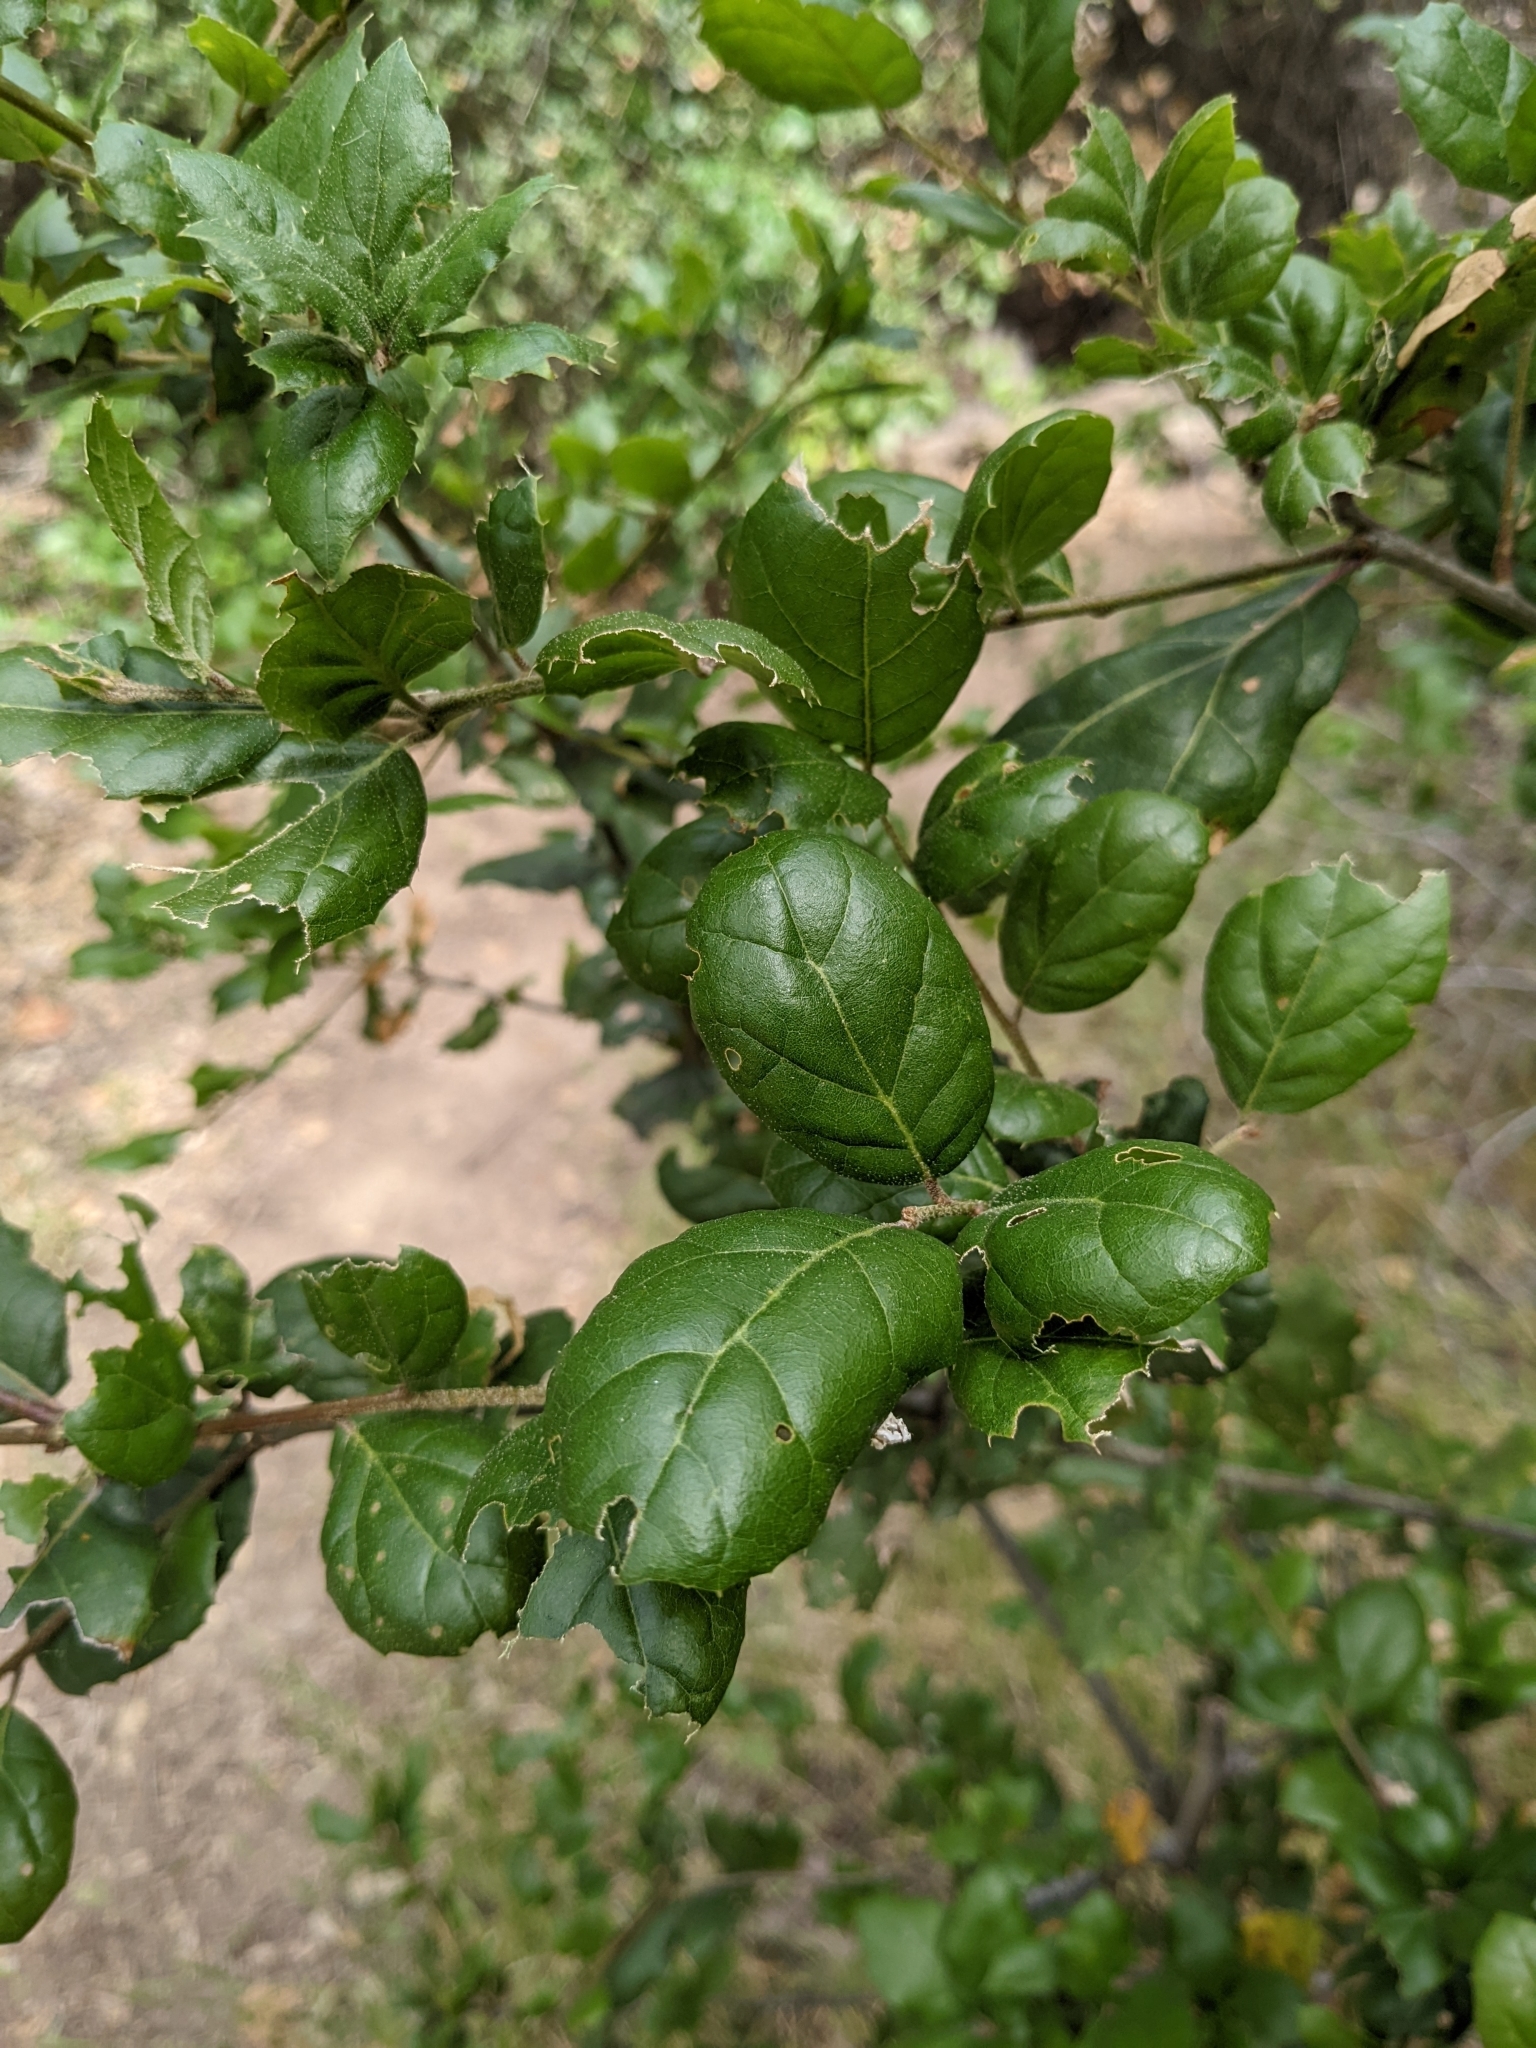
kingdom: Plantae
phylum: Tracheophyta
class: Magnoliopsida
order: Fagales
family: Fagaceae
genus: Quercus
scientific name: Quercus agrifolia
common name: California live oak
